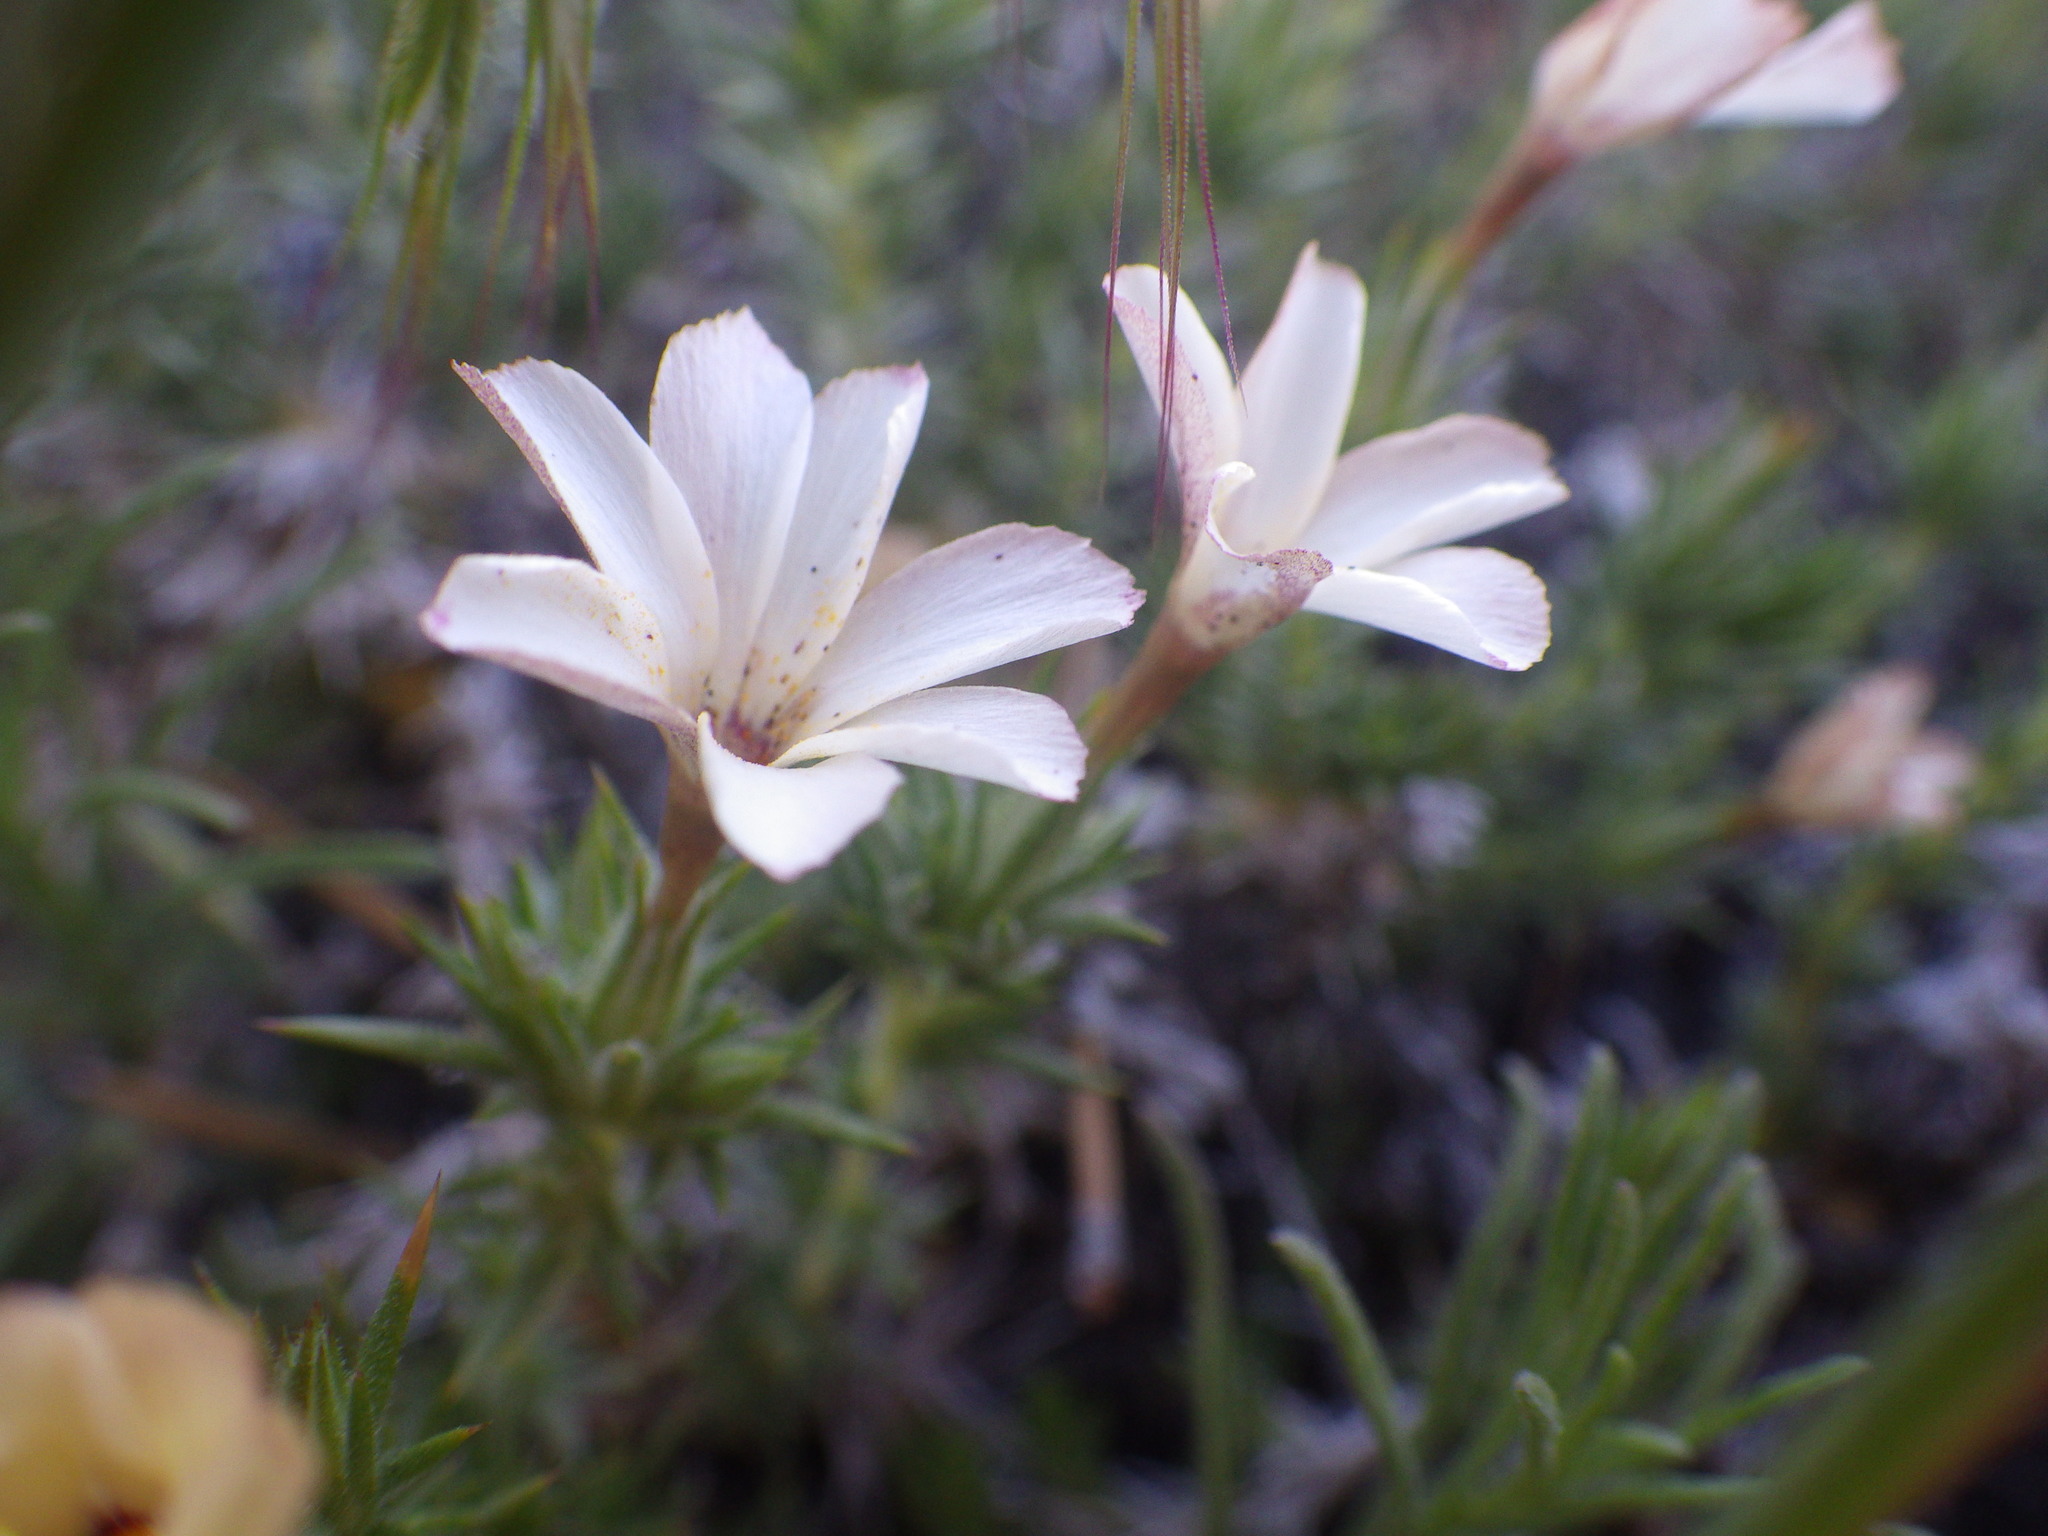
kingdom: Plantae
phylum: Tracheophyta
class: Magnoliopsida
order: Ericales
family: Polemoniaceae
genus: Linanthus
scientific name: Linanthus pungens
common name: Granite prickly phlox
